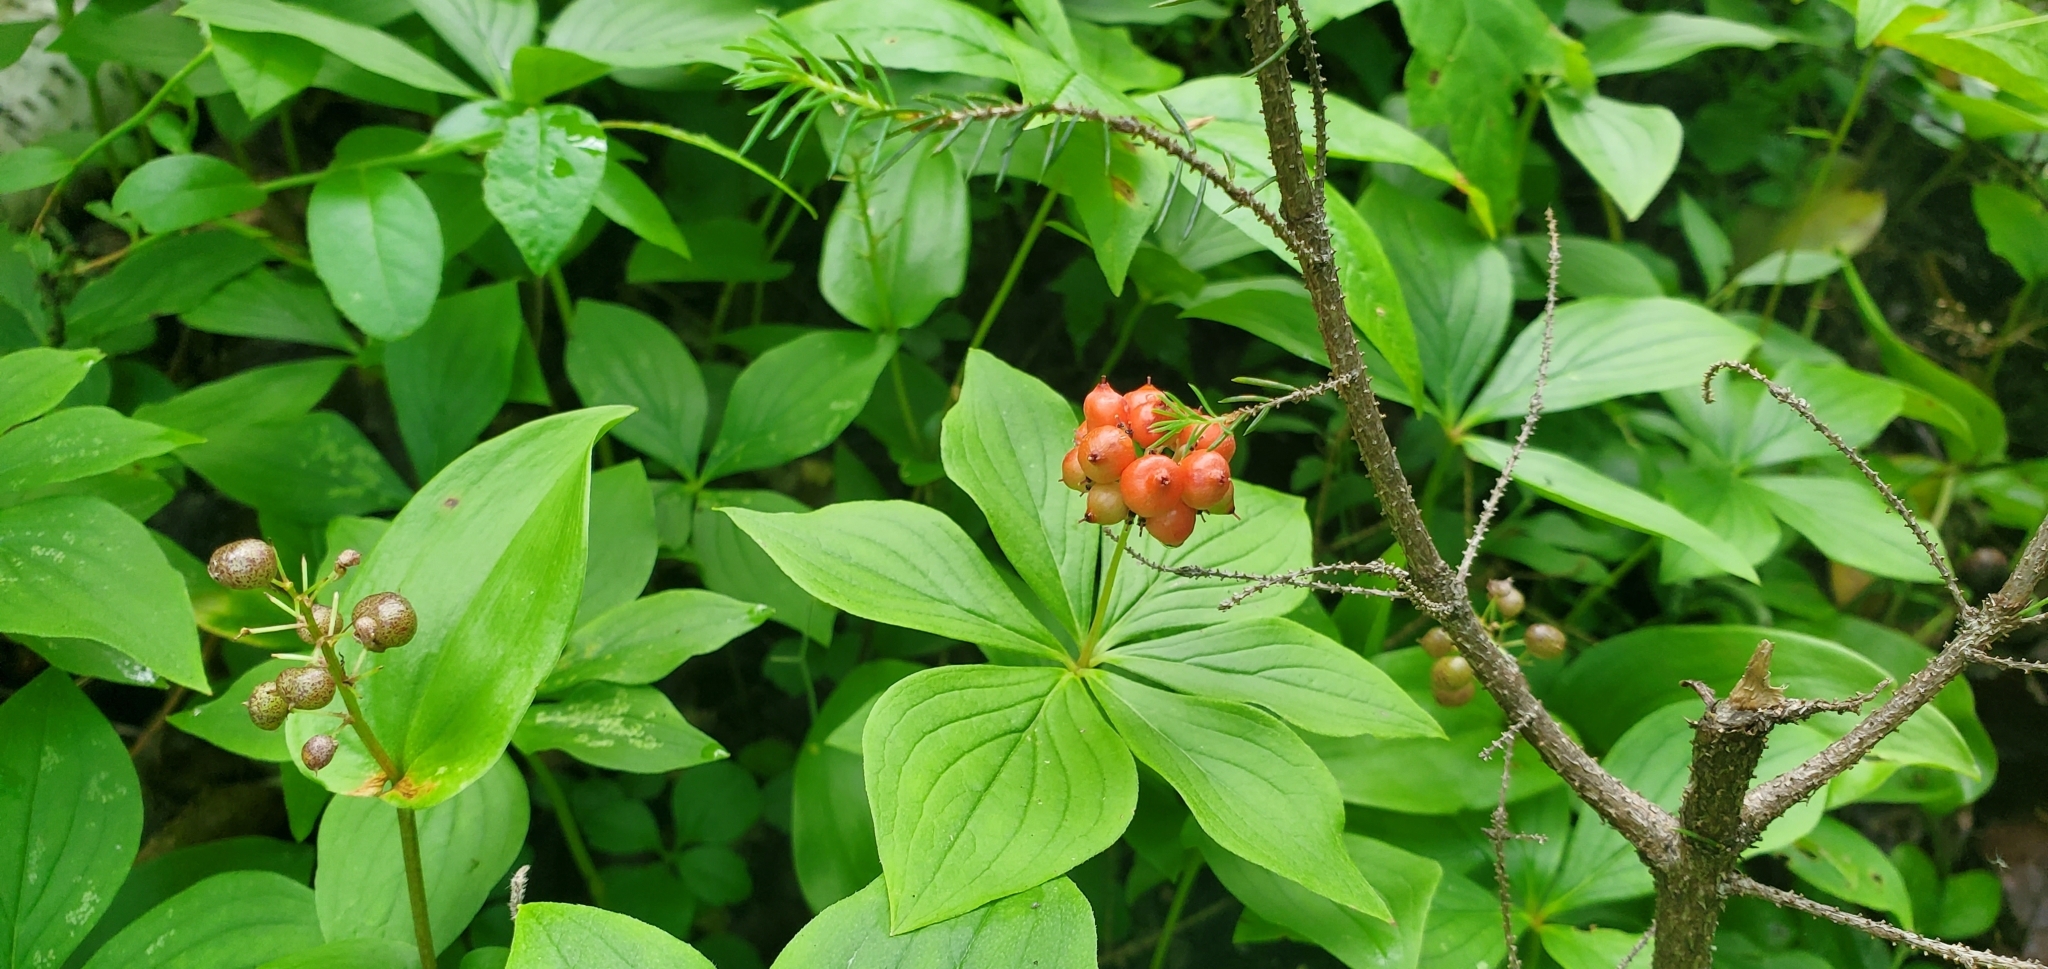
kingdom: Plantae
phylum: Tracheophyta
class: Magnoliopsida
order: Cornales
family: Cornaceae
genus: Cornus
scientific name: Cornus canadensis
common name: Creeping dogwood
